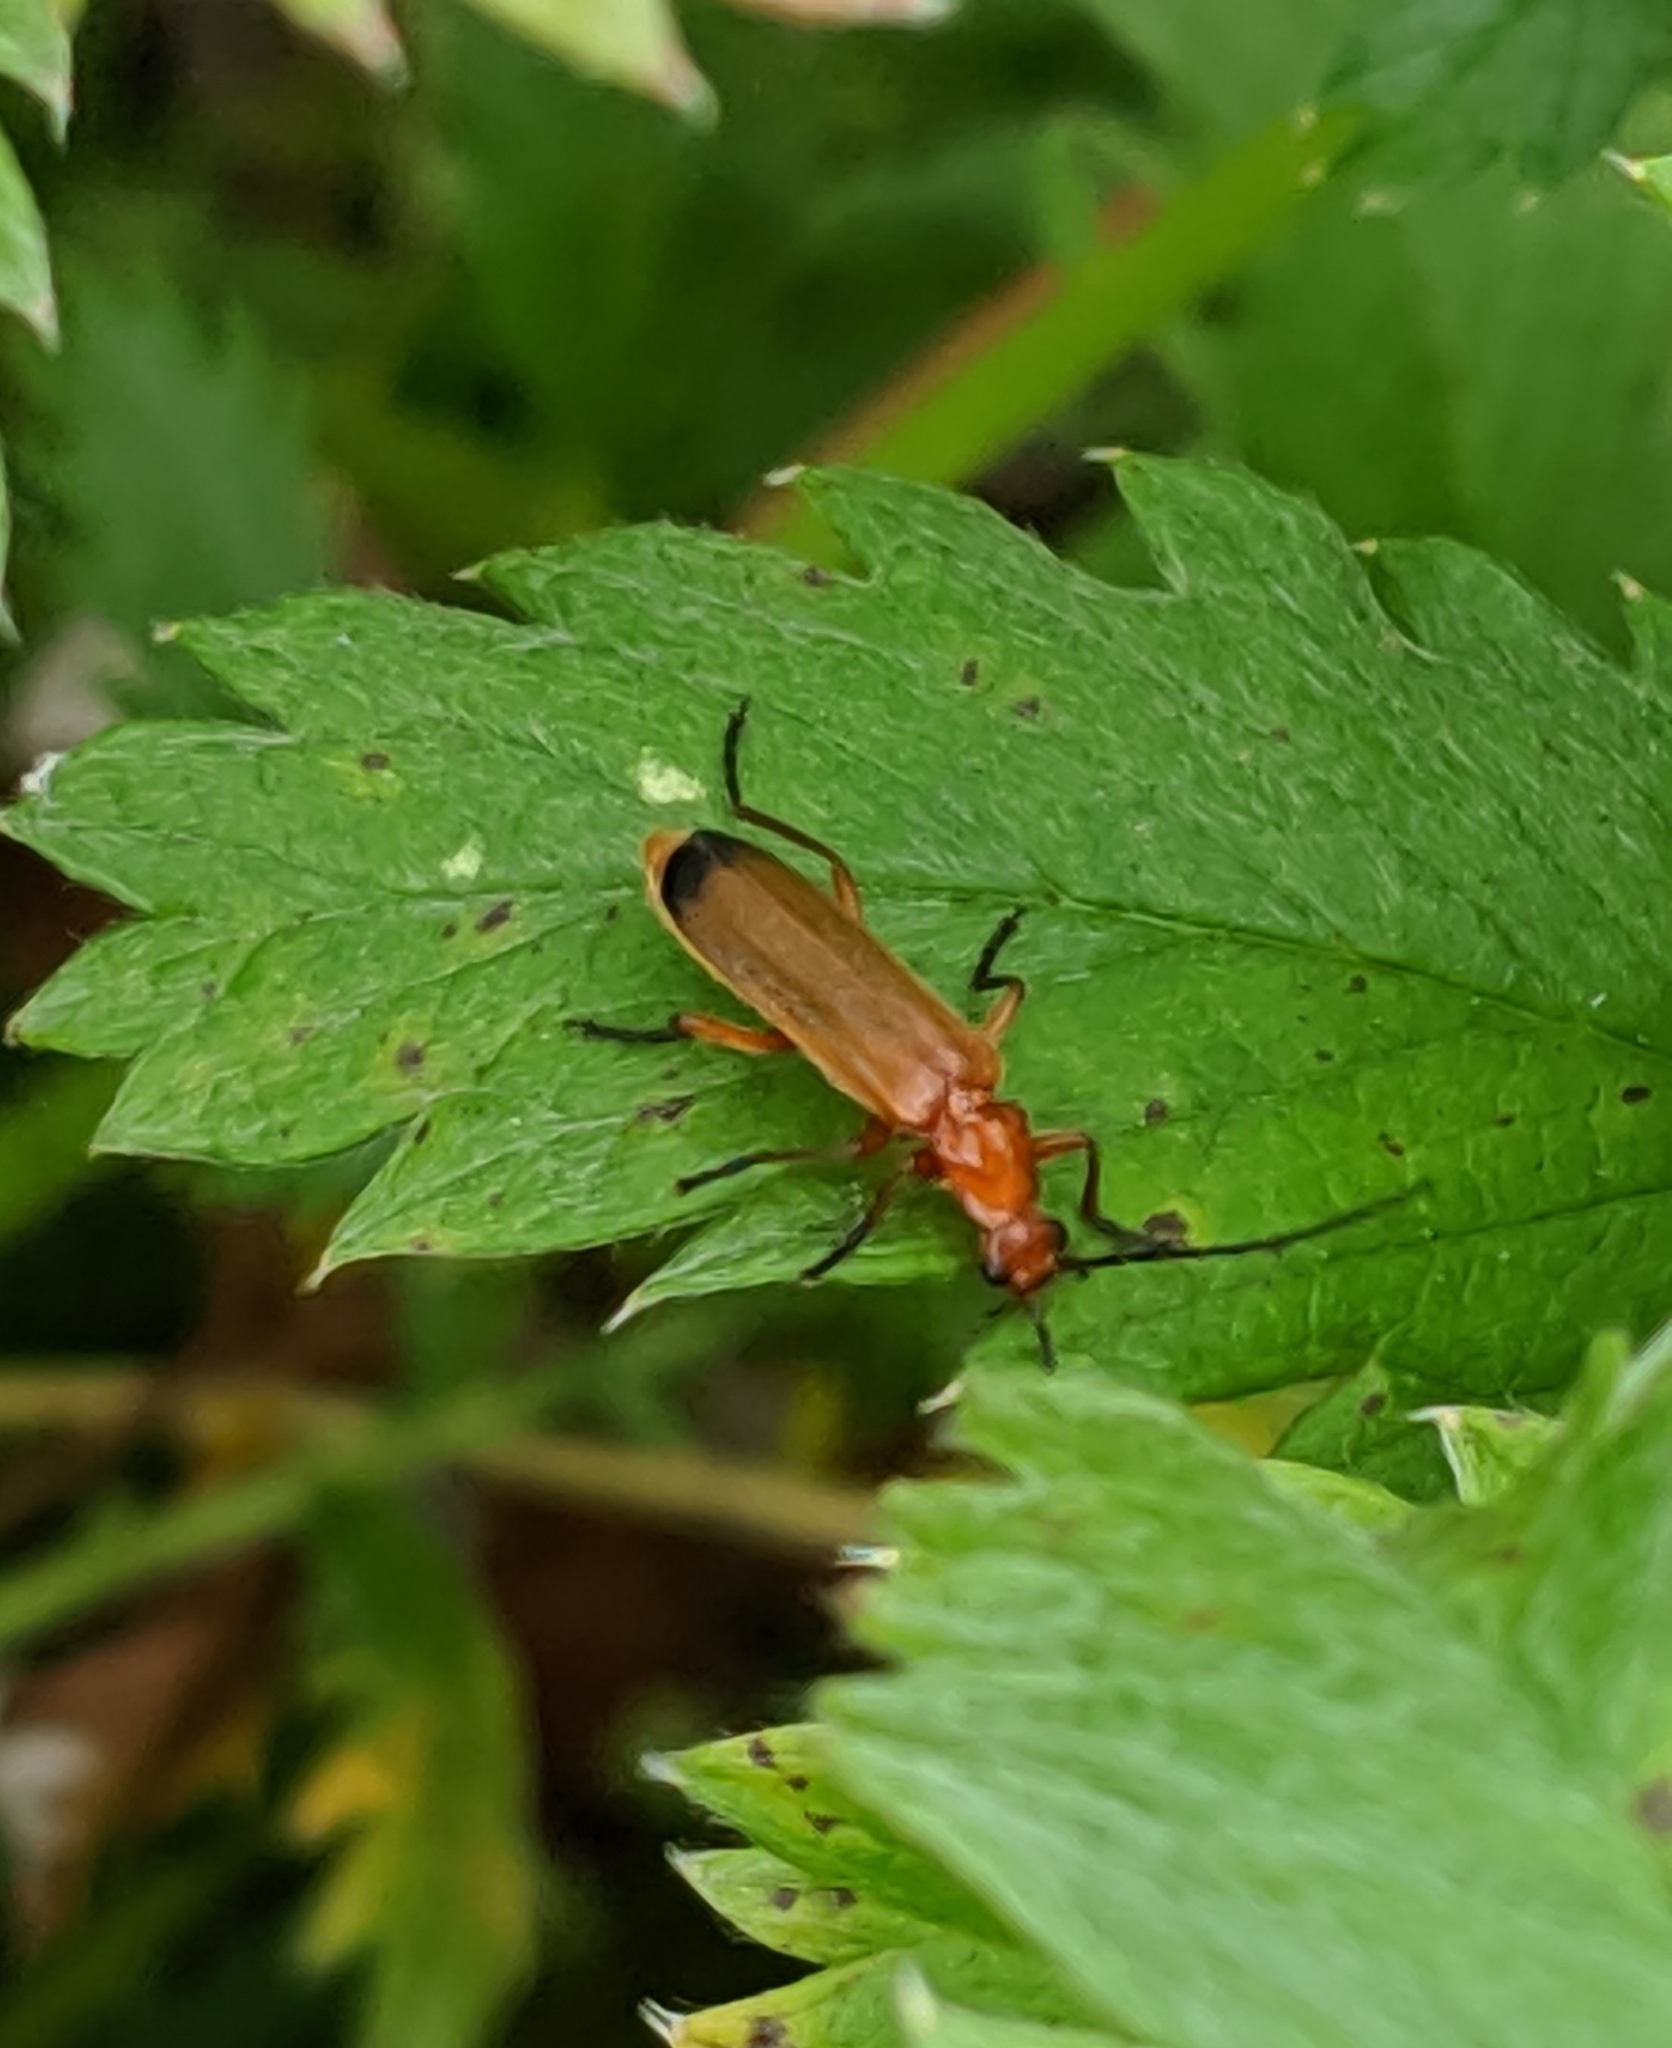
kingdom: Animalia
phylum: Arthropoda
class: Insecta
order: Coleoptera
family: Cantharidae
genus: Rhagonycha
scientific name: Rhagonycha fulva
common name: Common red soldier beetle
